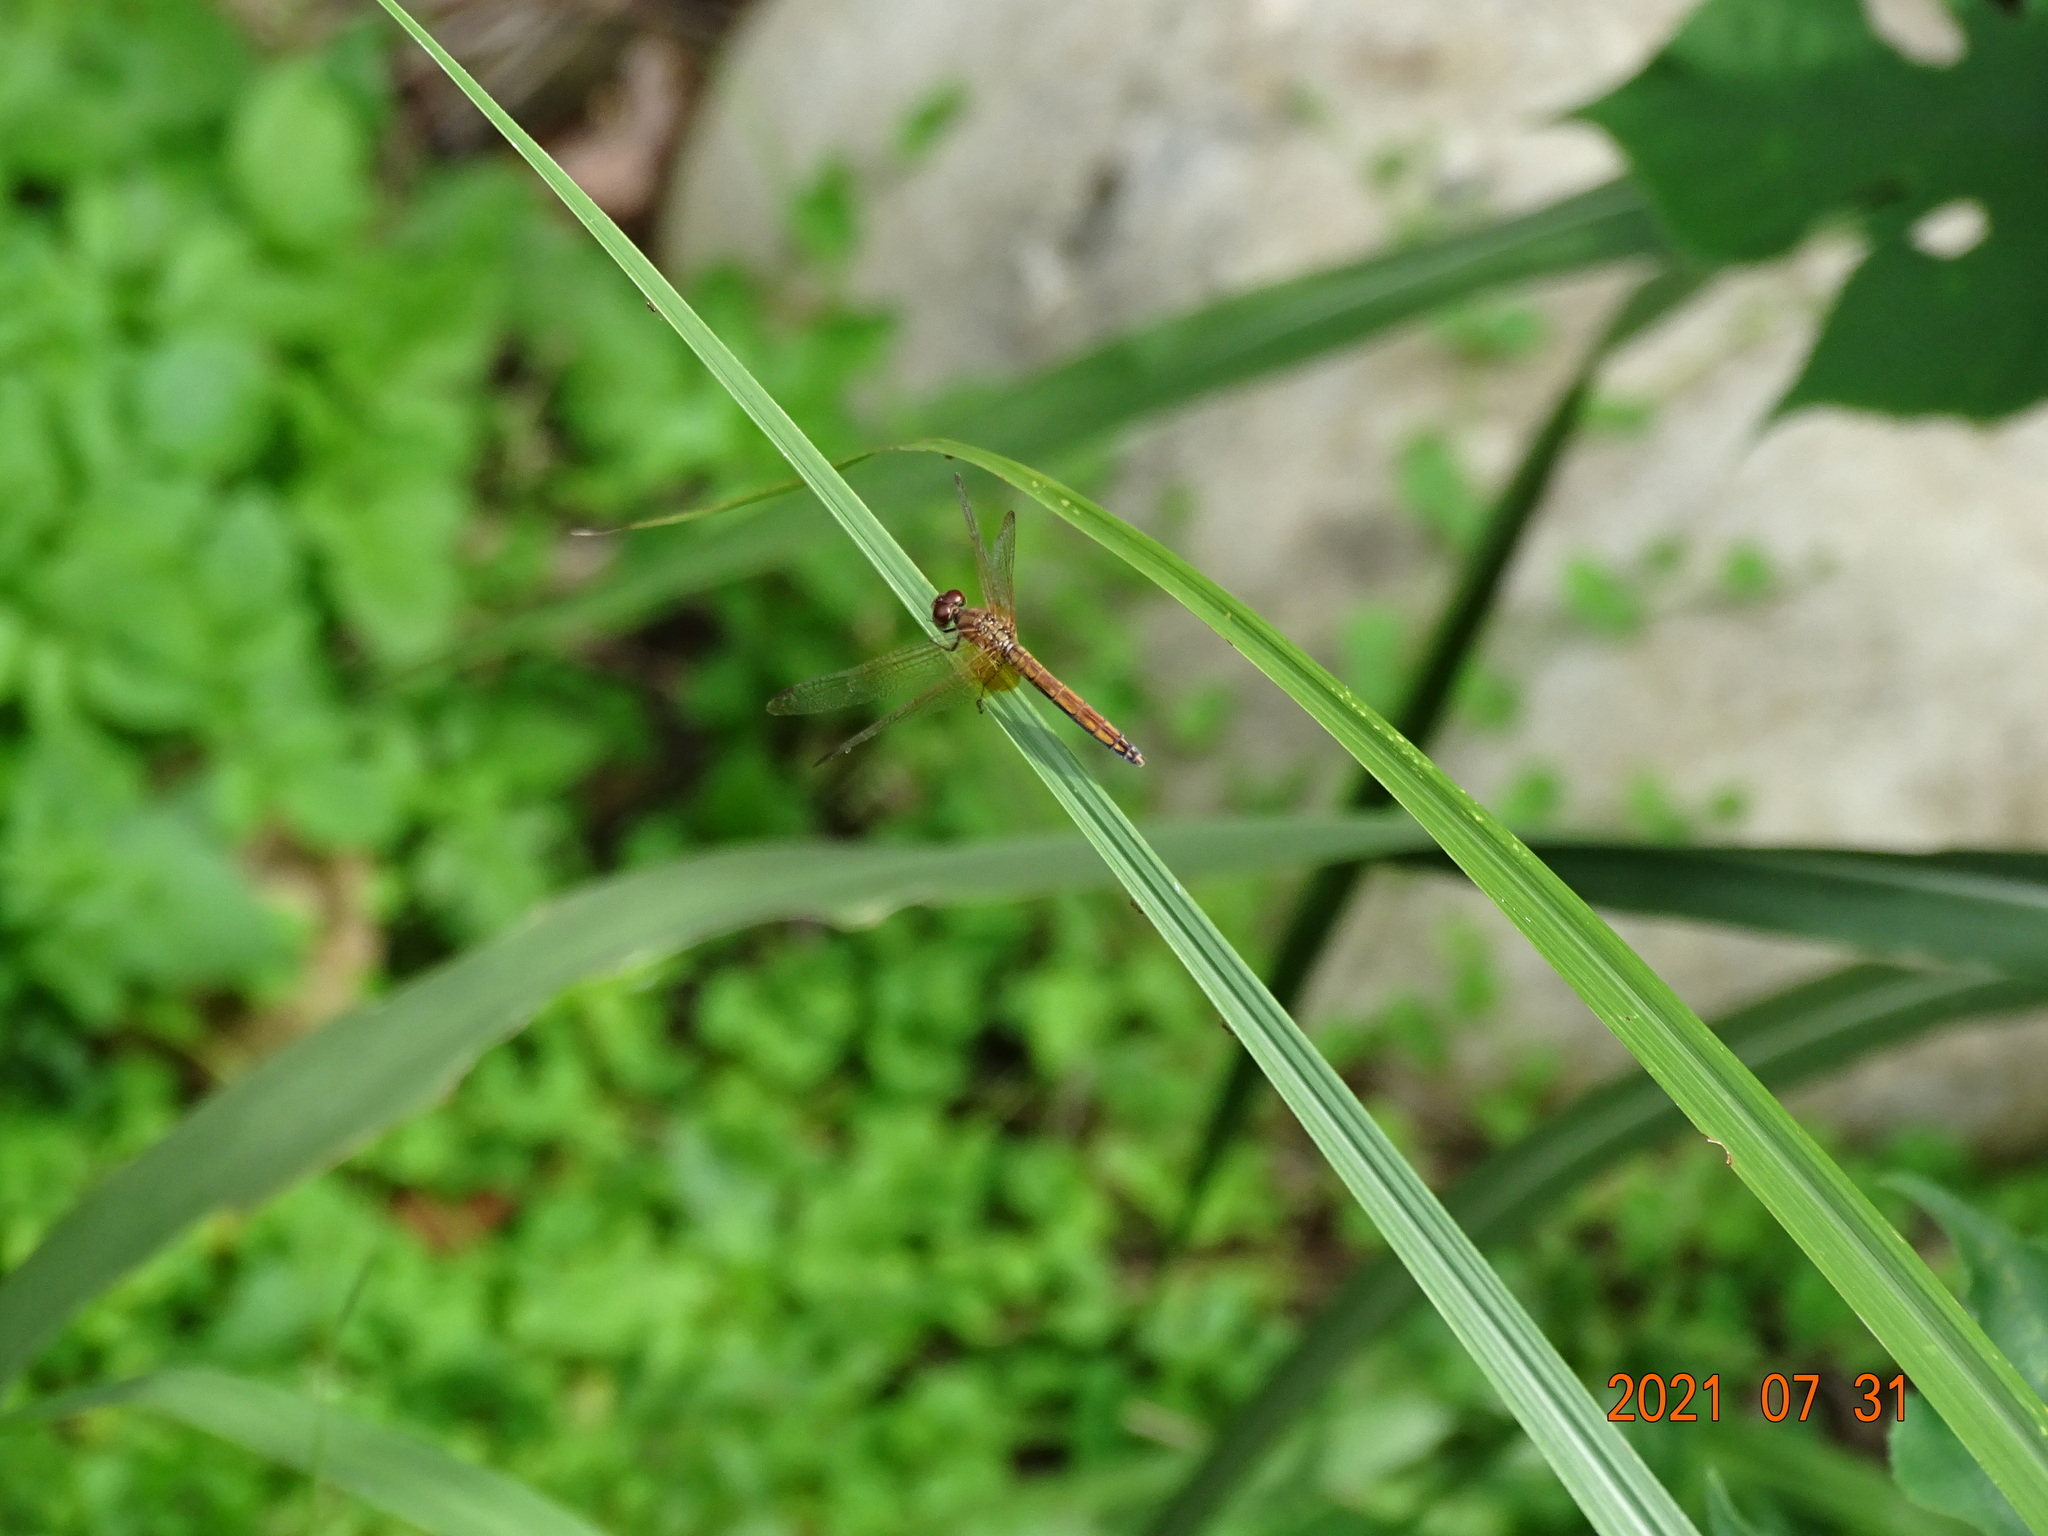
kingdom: Animalia
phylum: Arthropoda
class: Insecta
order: Odonata
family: Libellulidae
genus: Trithemis
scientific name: Trithemis aurora
